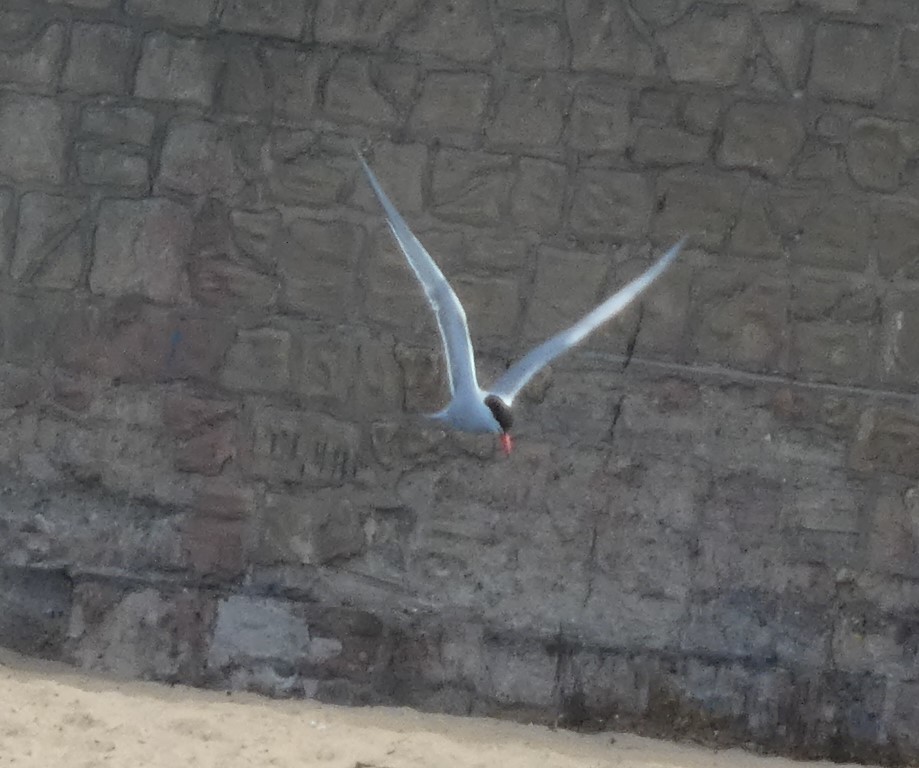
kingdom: Animalia
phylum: Chordata
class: Aves
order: Charadriiformes
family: Laridae
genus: Sterna
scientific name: Sterna hirundo
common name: Common tern
